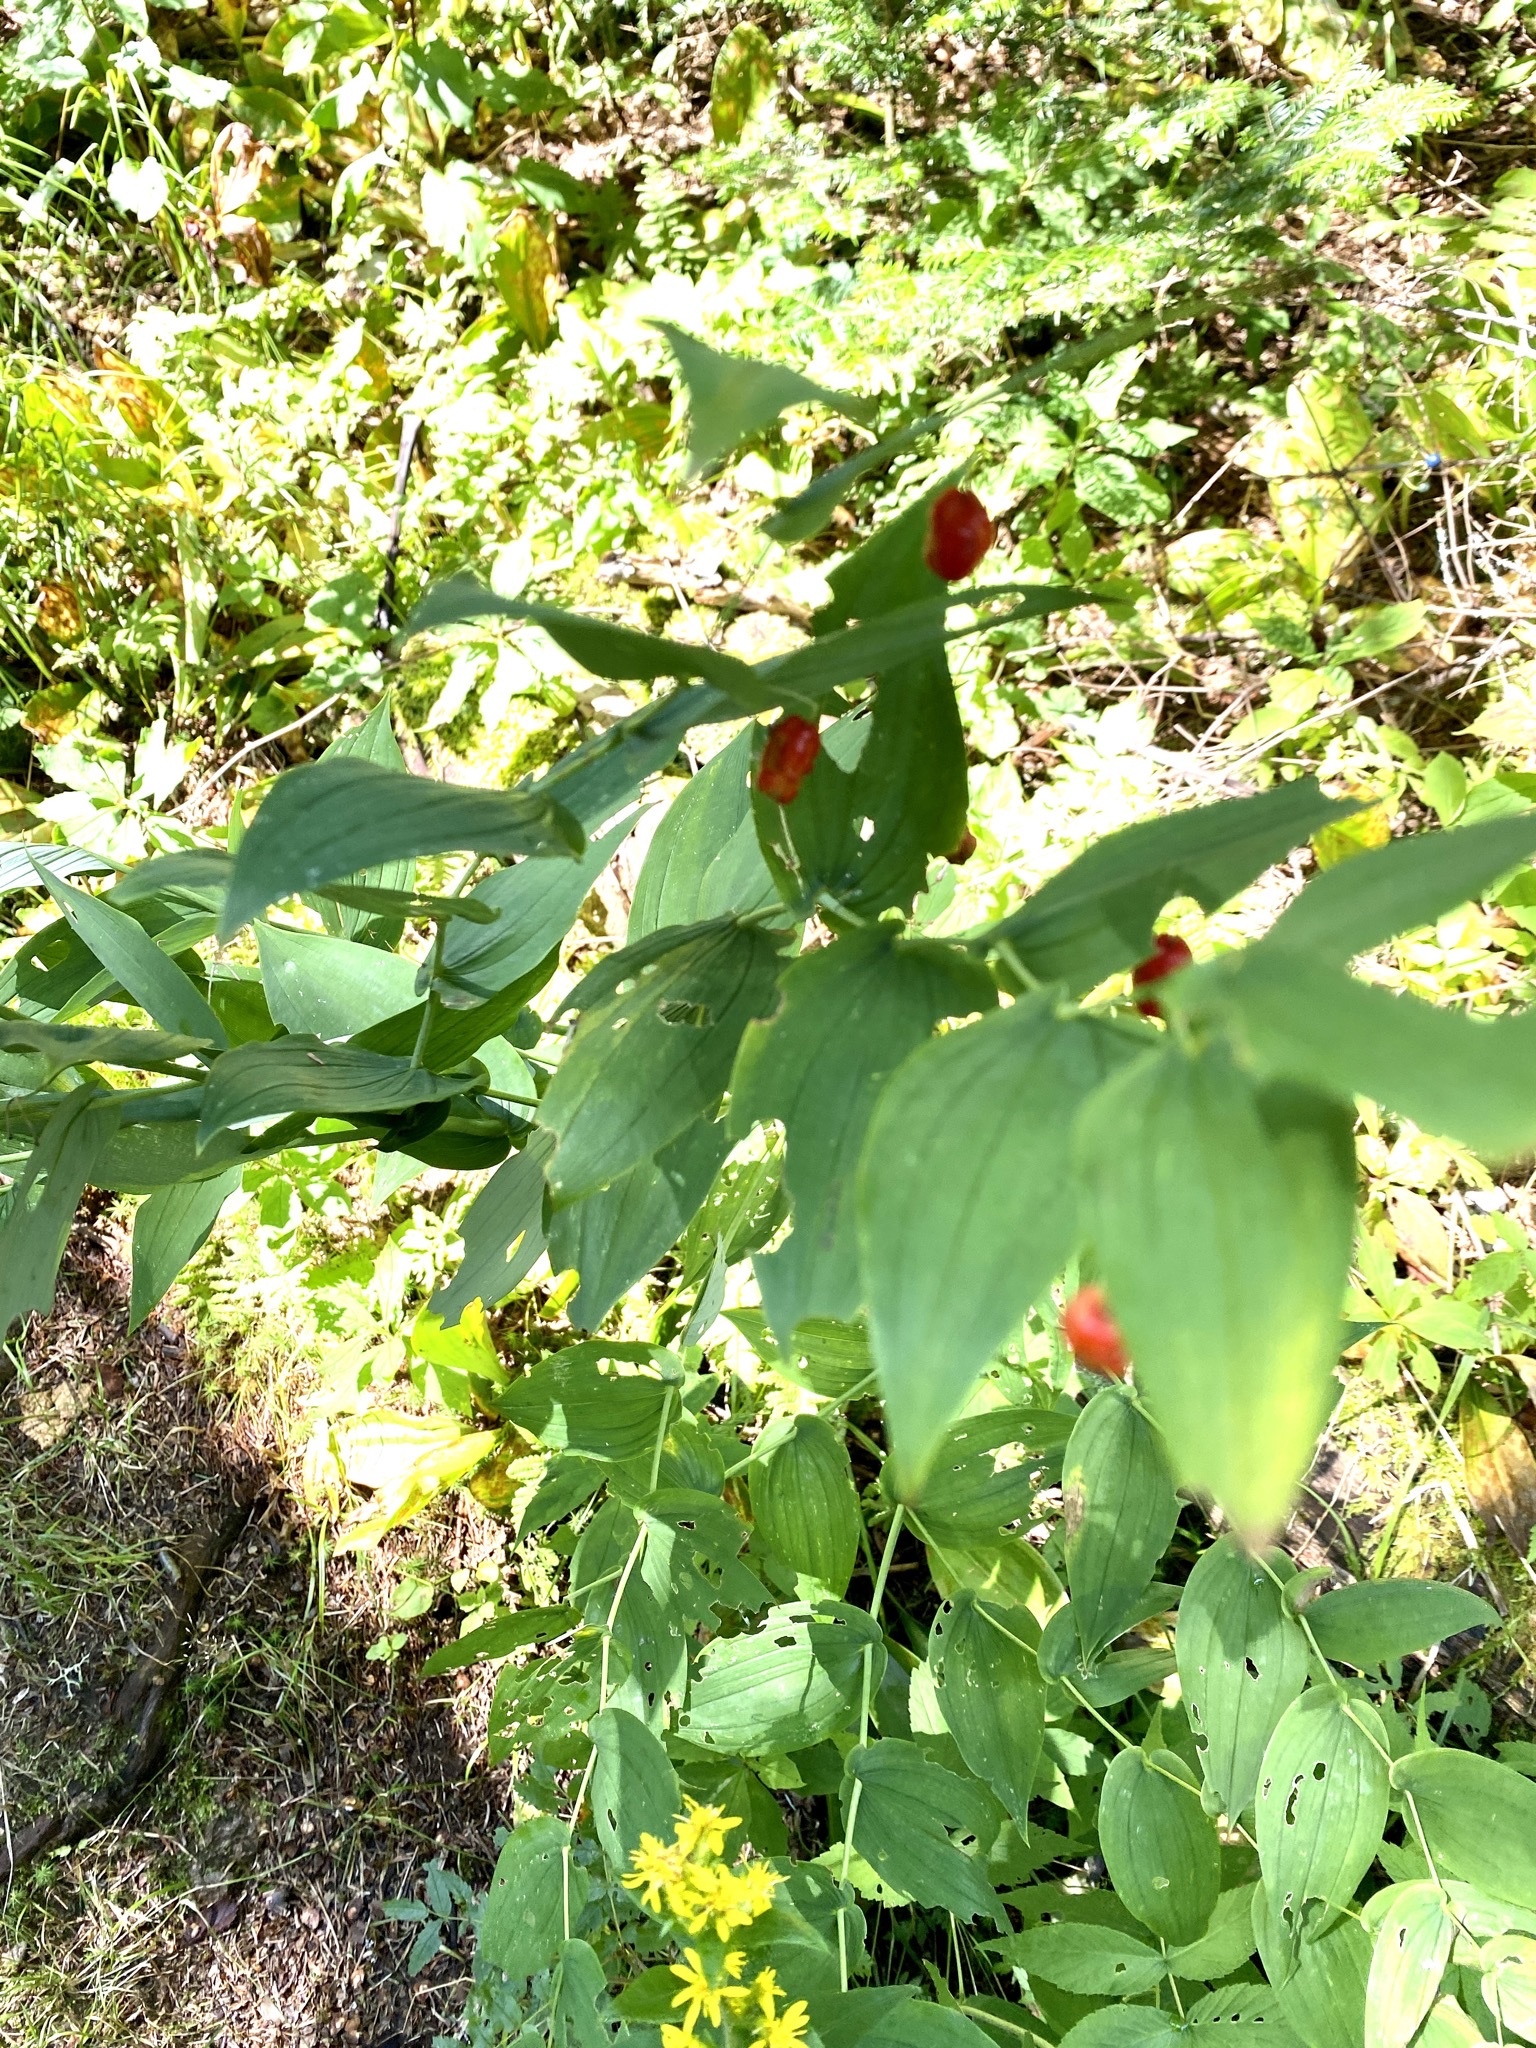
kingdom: Plantae
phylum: Tracheophyta
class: Liliopsida
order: Liliales
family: Liliaceae
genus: Streptopus
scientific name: Streptopus amplexifolius
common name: Clasp twisted stalk
